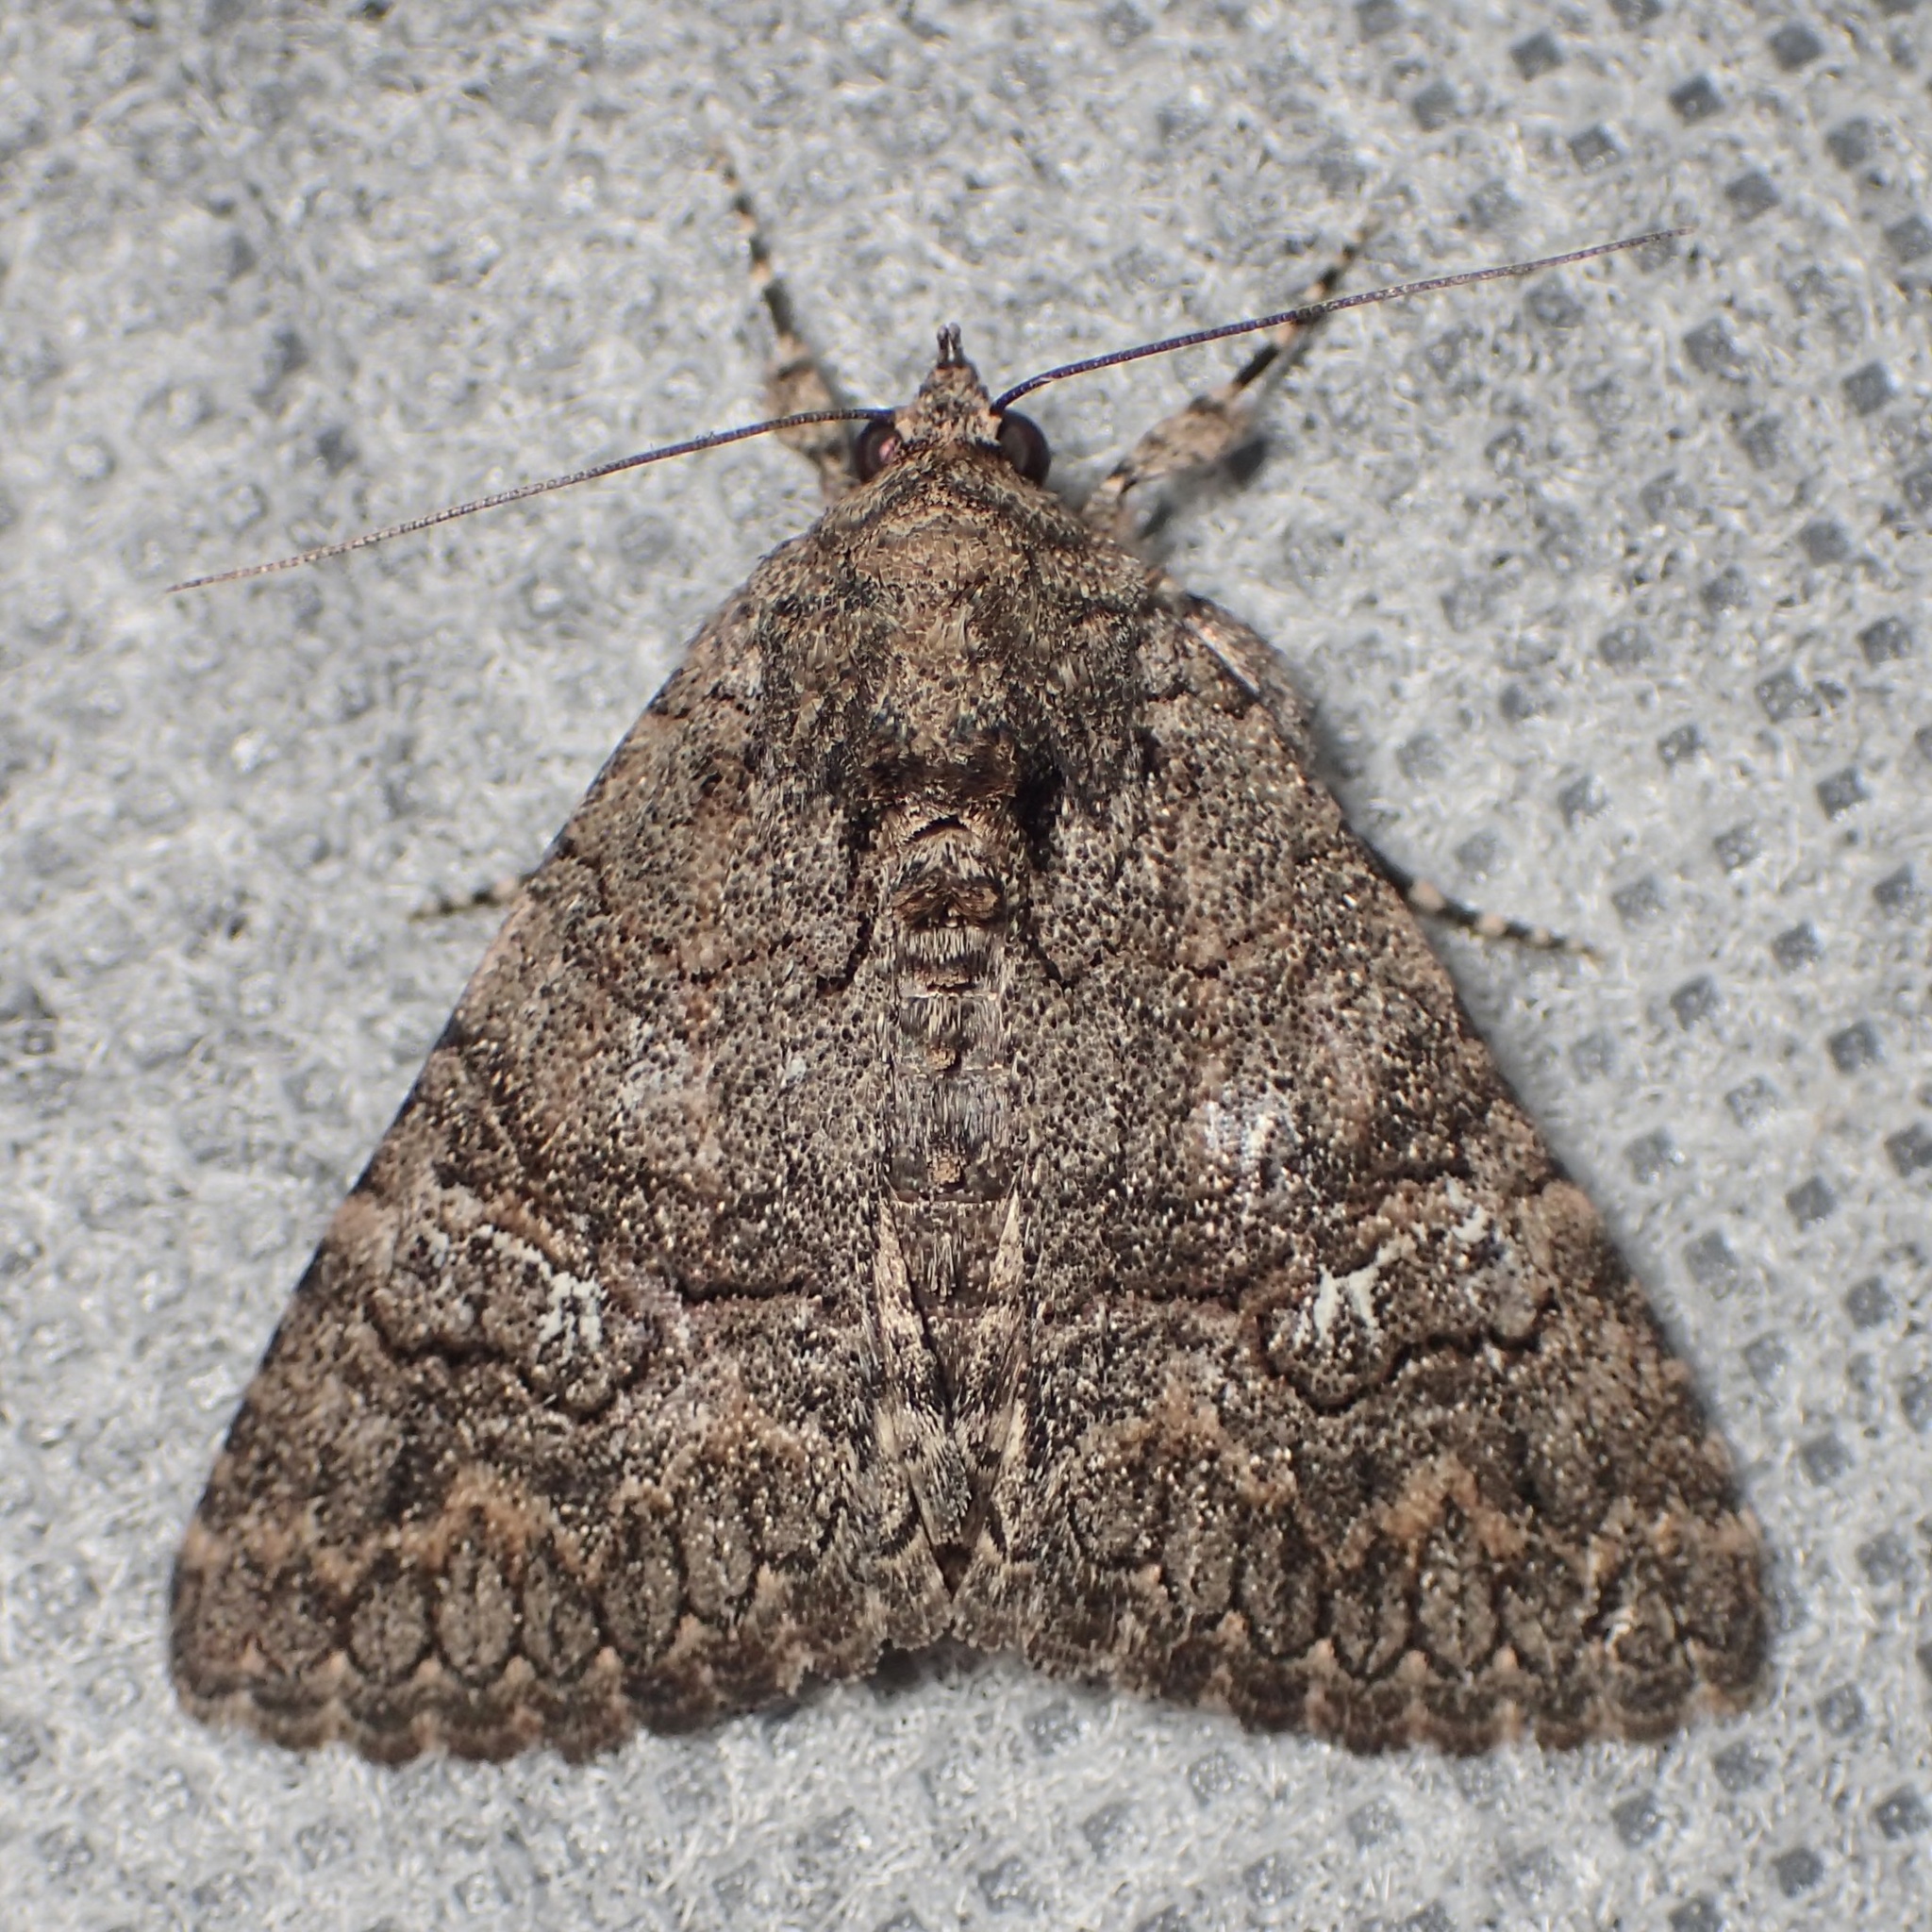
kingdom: Animalia
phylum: Arthropoda
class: Insecta
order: Lepidoptera
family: Erebidae
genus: Elousa
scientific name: Elousa mima
